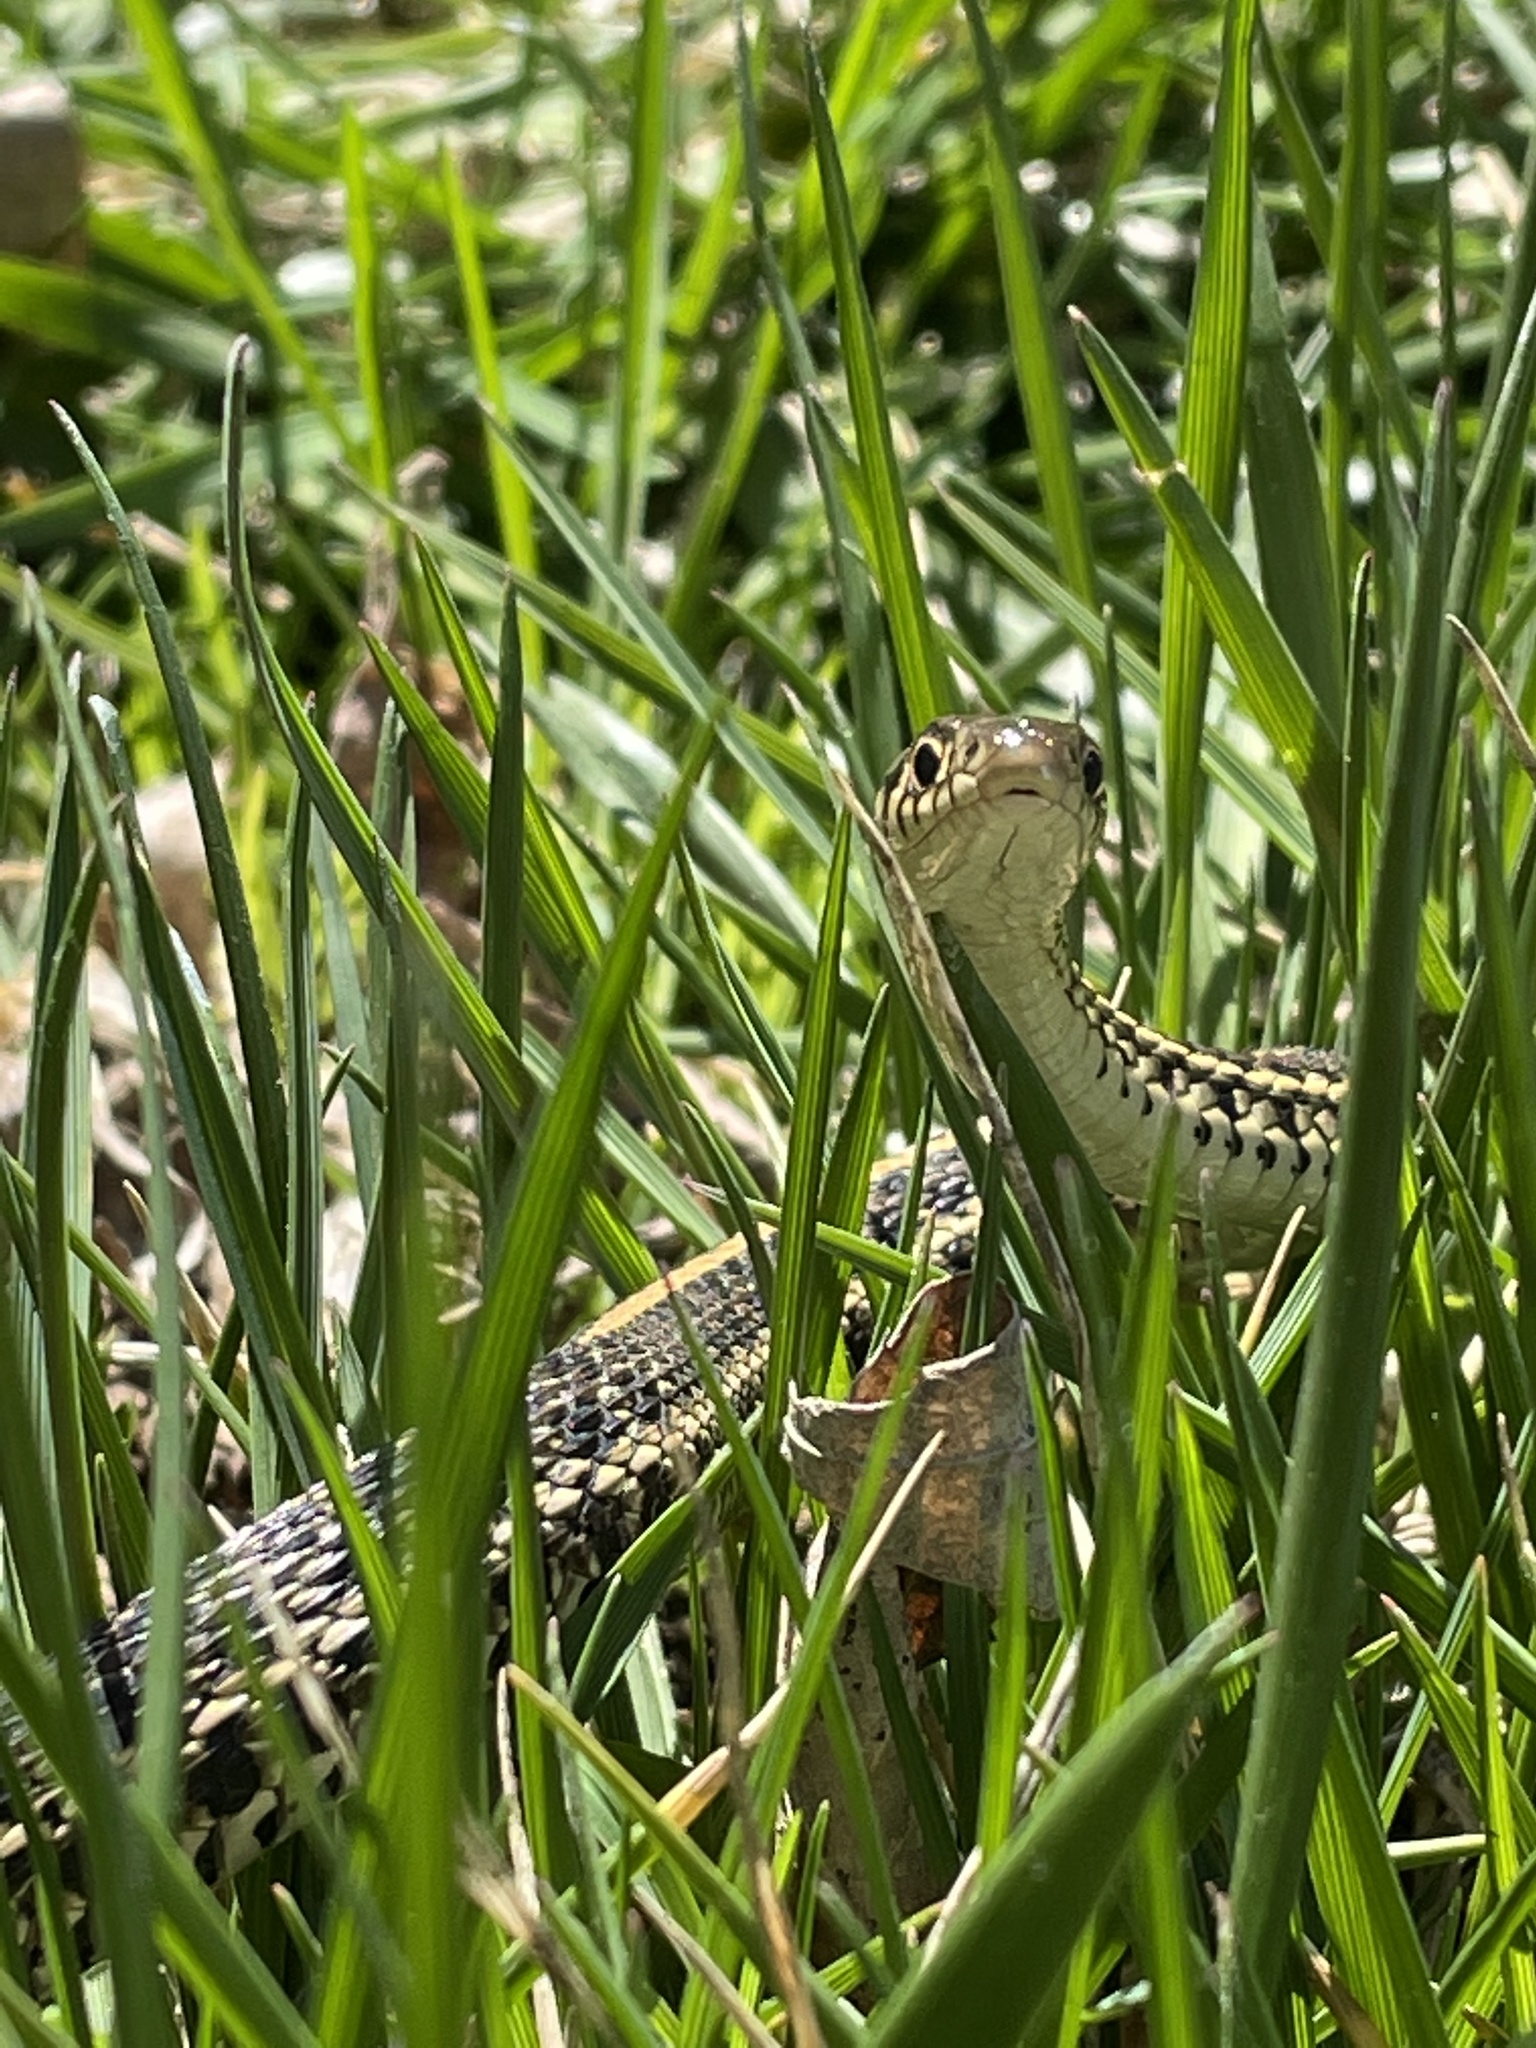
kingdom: Animalia
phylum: Chordata
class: Squamata
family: Colubridae
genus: Thamnophis
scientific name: Thamnophis radix
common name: Plains garter snake
